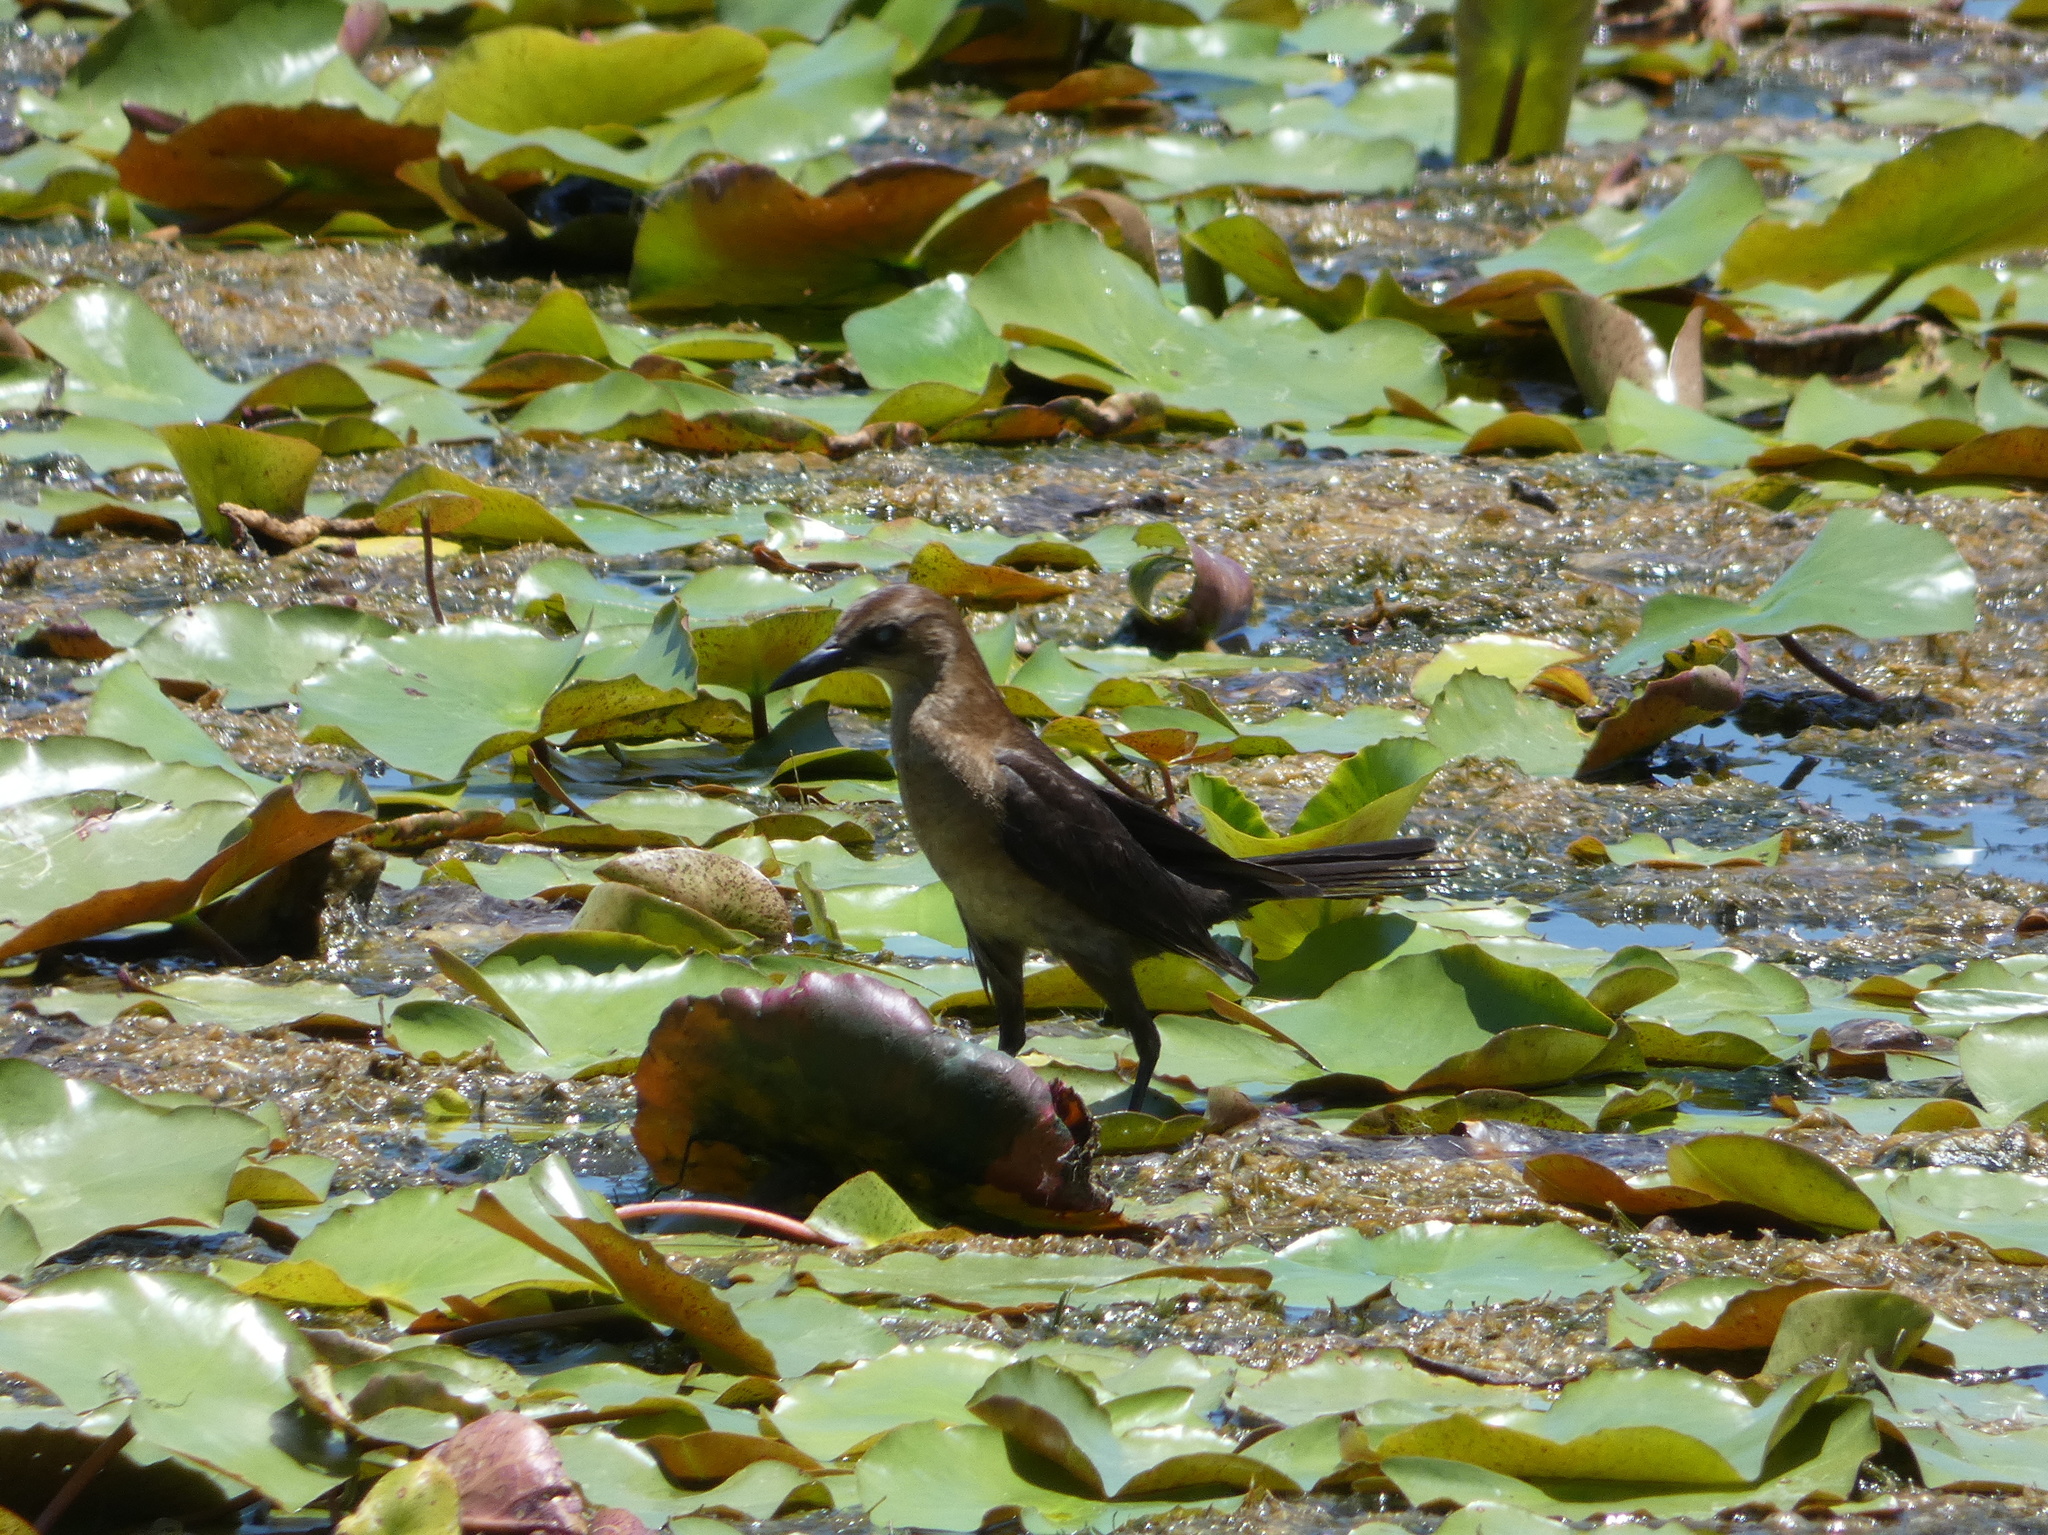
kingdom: Animalia
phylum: Chordata
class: Aves
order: Passeriformes
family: Icteridae
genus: Quiscalus
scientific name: Quiscalus major
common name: Boat-tailed grackle
